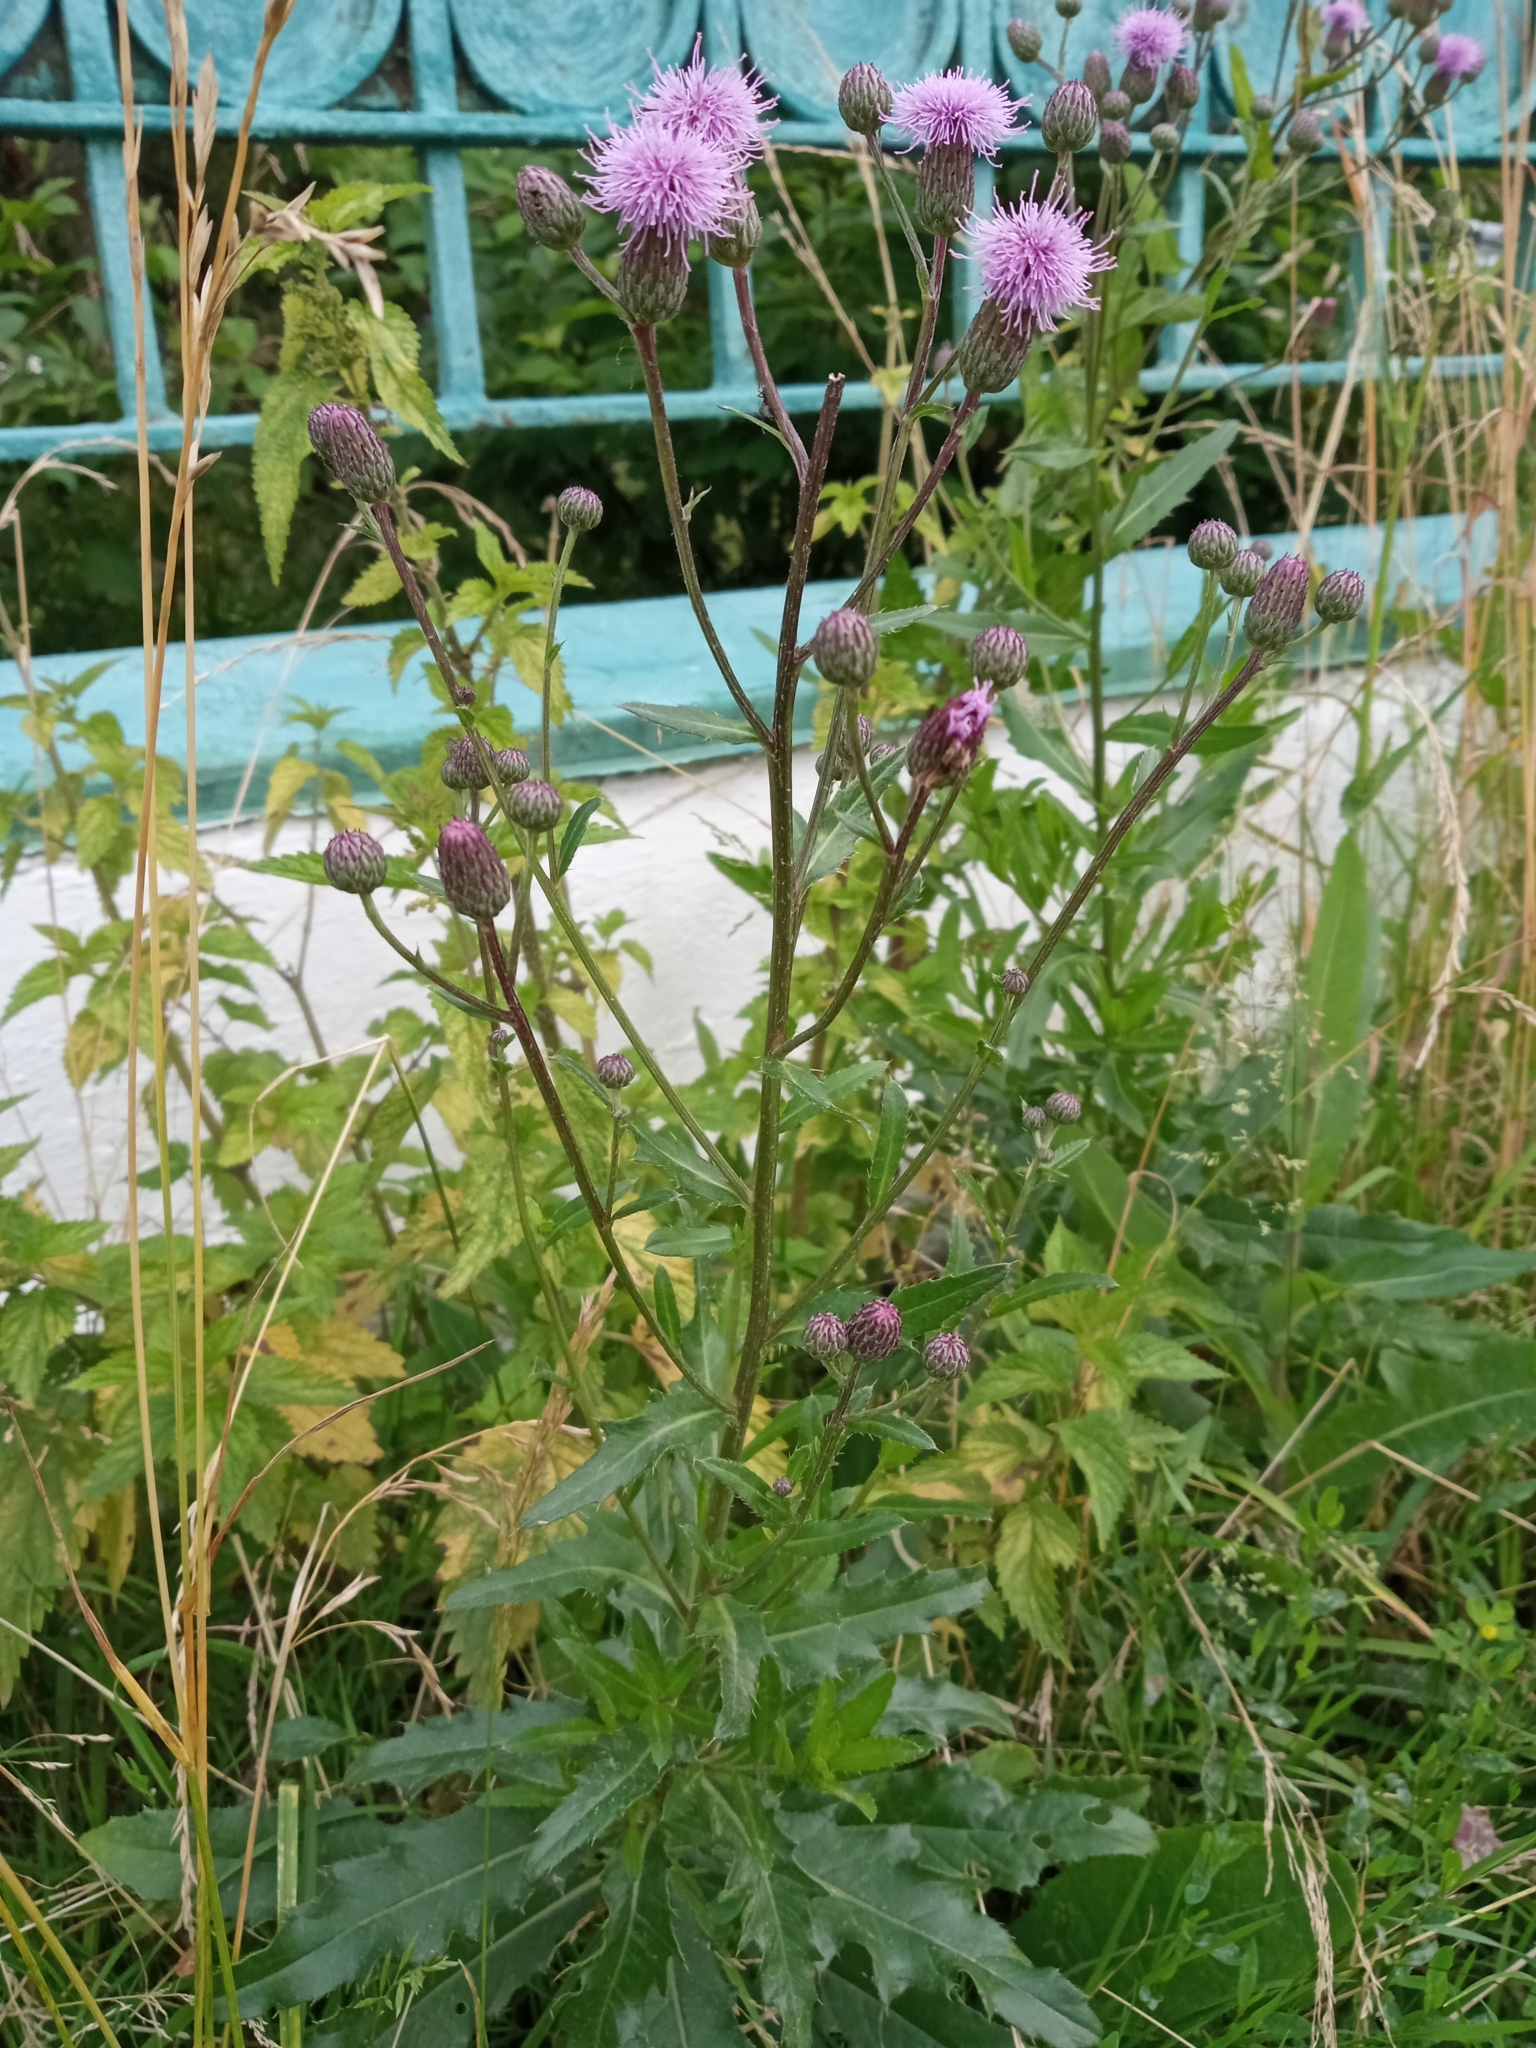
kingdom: Plantae
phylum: Tracheophyta
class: Magnoliopsida
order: Asterales
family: Asteraceae
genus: Cirsium
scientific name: Cirsium arvense
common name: Creeping thistle
